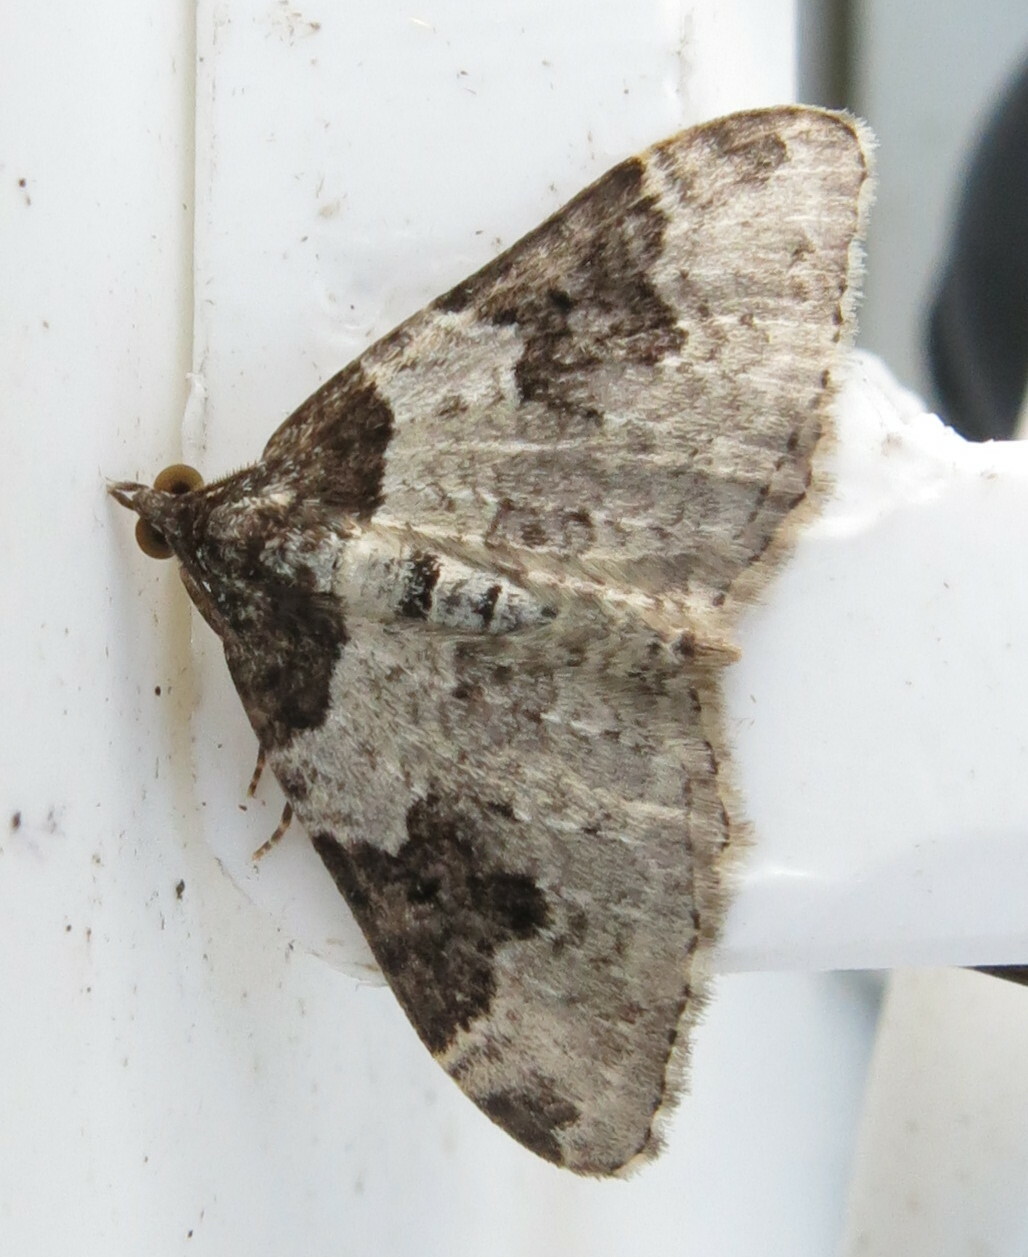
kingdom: Animalia
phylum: Arthropoda
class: Insecta
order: Lepidoptera
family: Geometridae
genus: Xanthorhoe
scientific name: Xanthorhoe fluctuata
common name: Garden carpet
